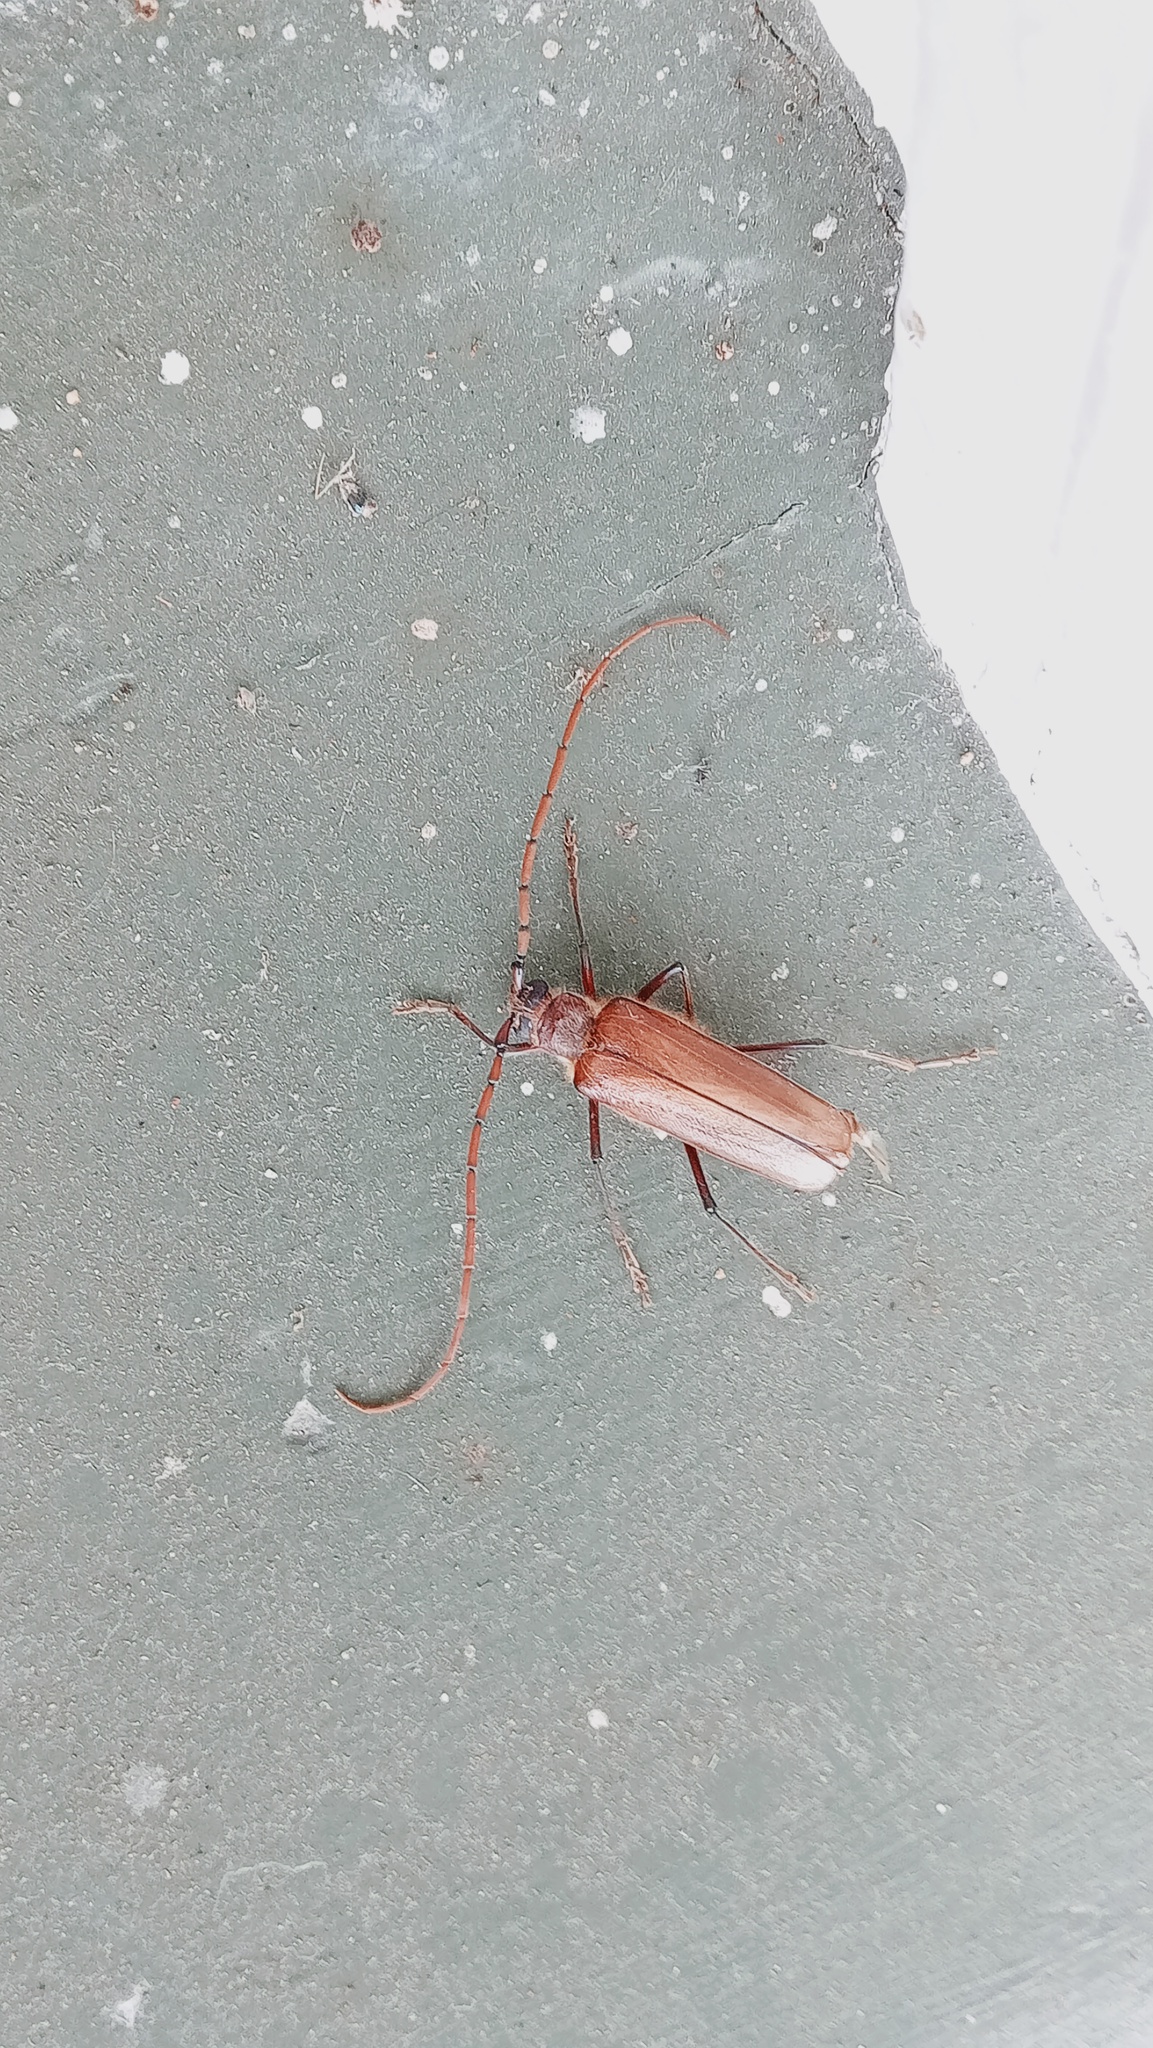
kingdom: Animalia
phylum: Arthropoda
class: Insecta
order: Coleoptera
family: Cerambycidae
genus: Ochrocydus
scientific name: Ochrocydus huttoni
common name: Kanuka longhorn
